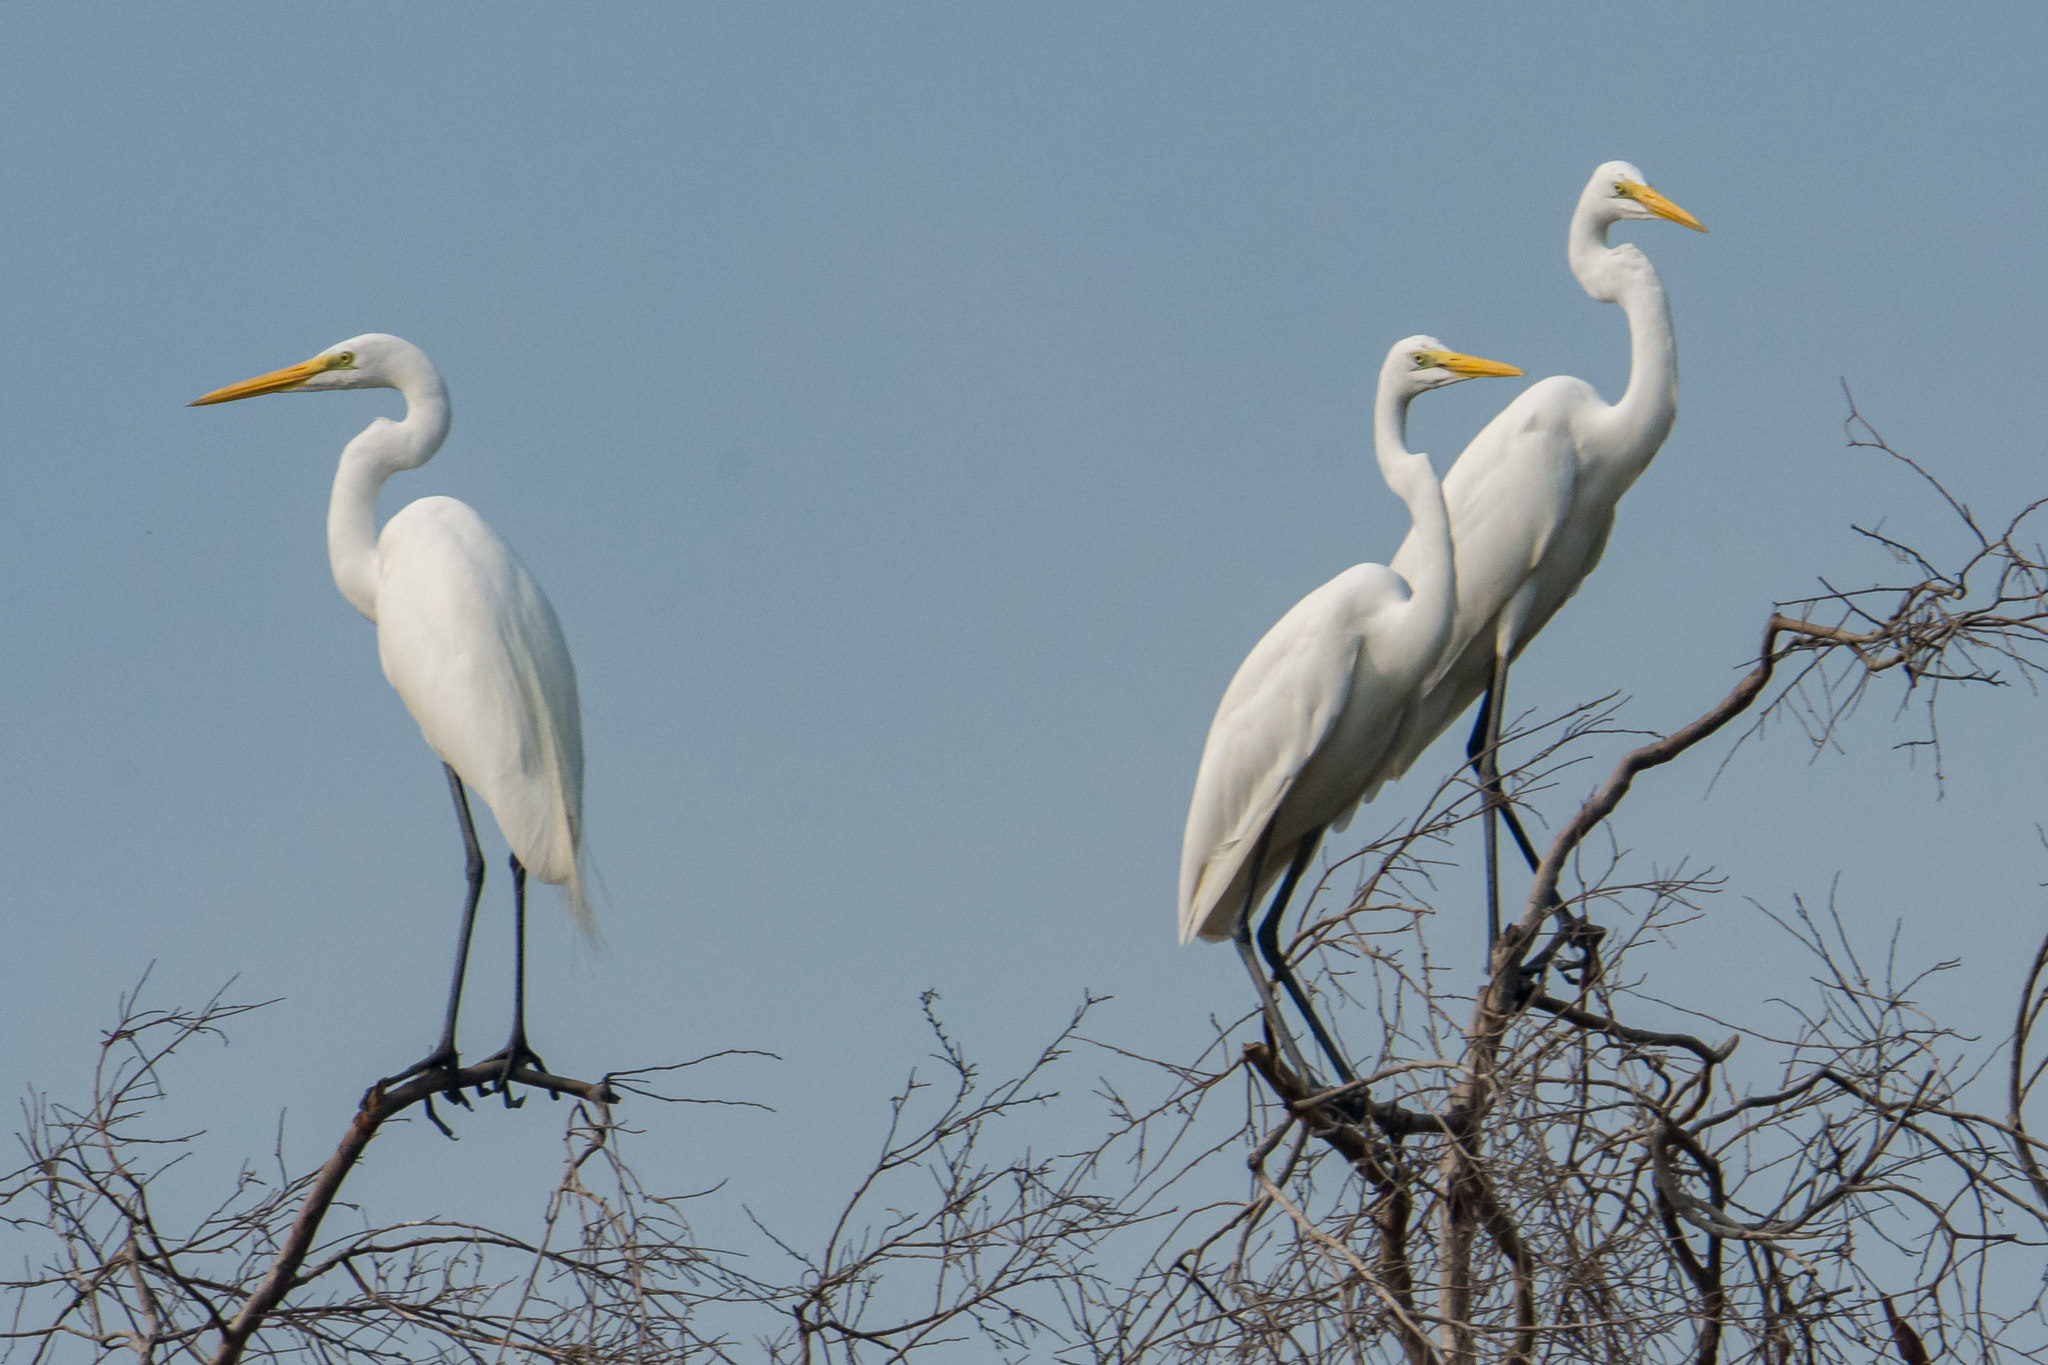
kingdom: Animalia
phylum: Chordata
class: Aves
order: Pelecaniformes
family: Ardeidae
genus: Ardea
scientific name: Ardea alba
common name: Great egret
